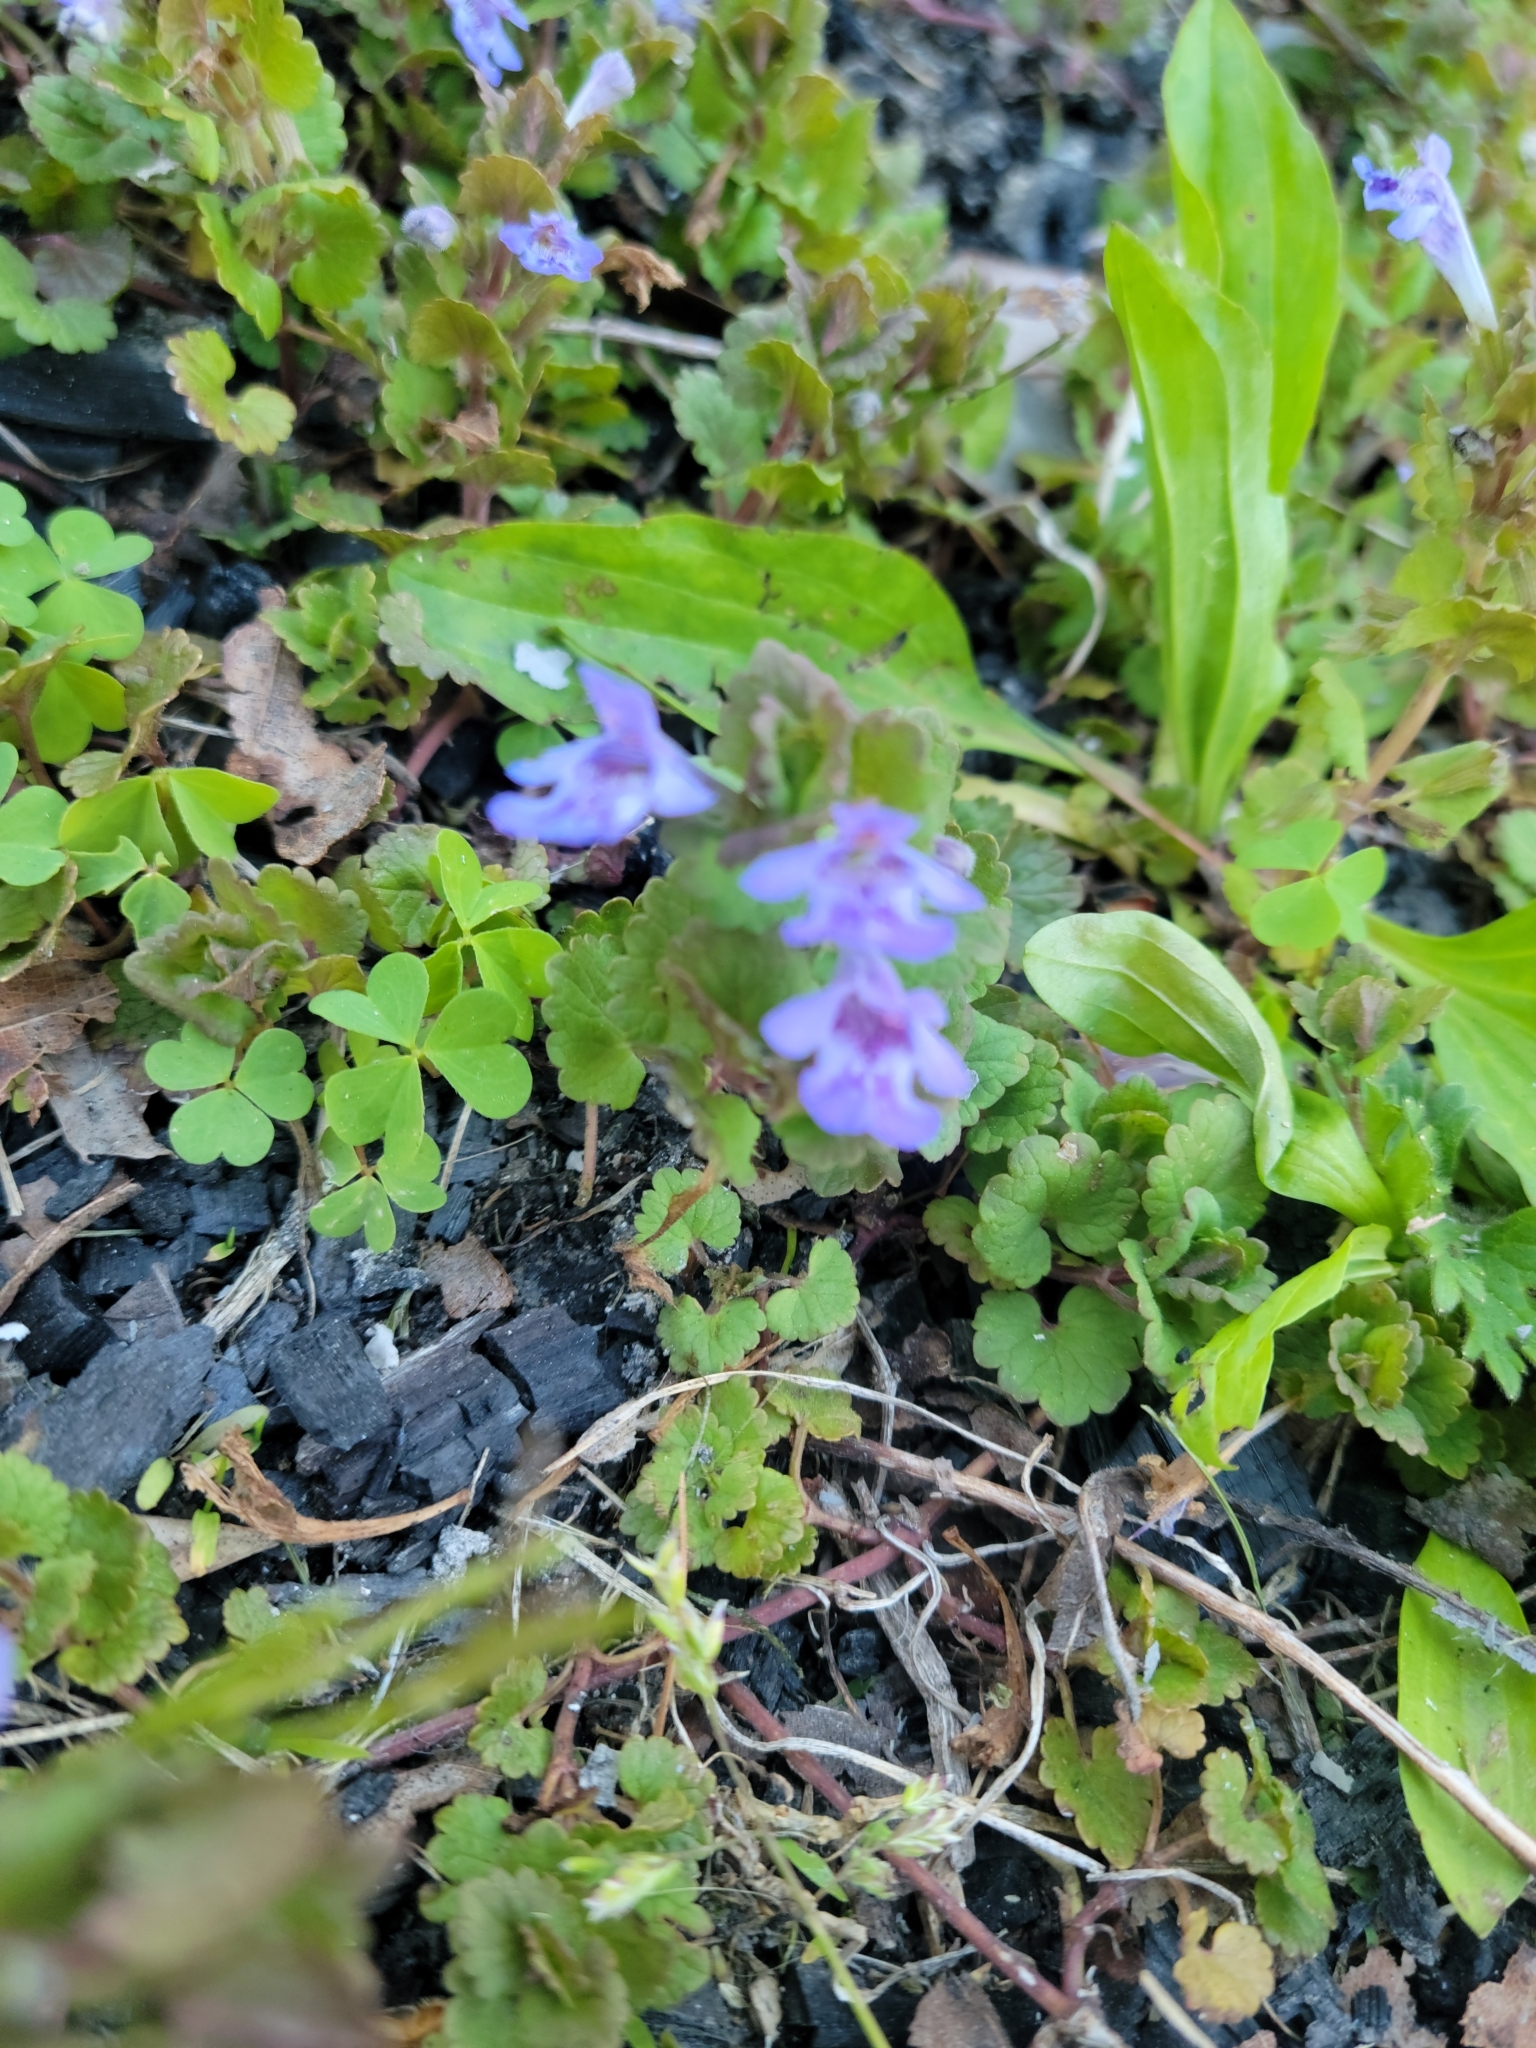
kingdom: Plantae
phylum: Tracheophyta
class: Magnoliopsida
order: Lamiales
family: Lamiaceae
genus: Glechoma
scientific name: Glechoma hederacea
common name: Ground ivy
